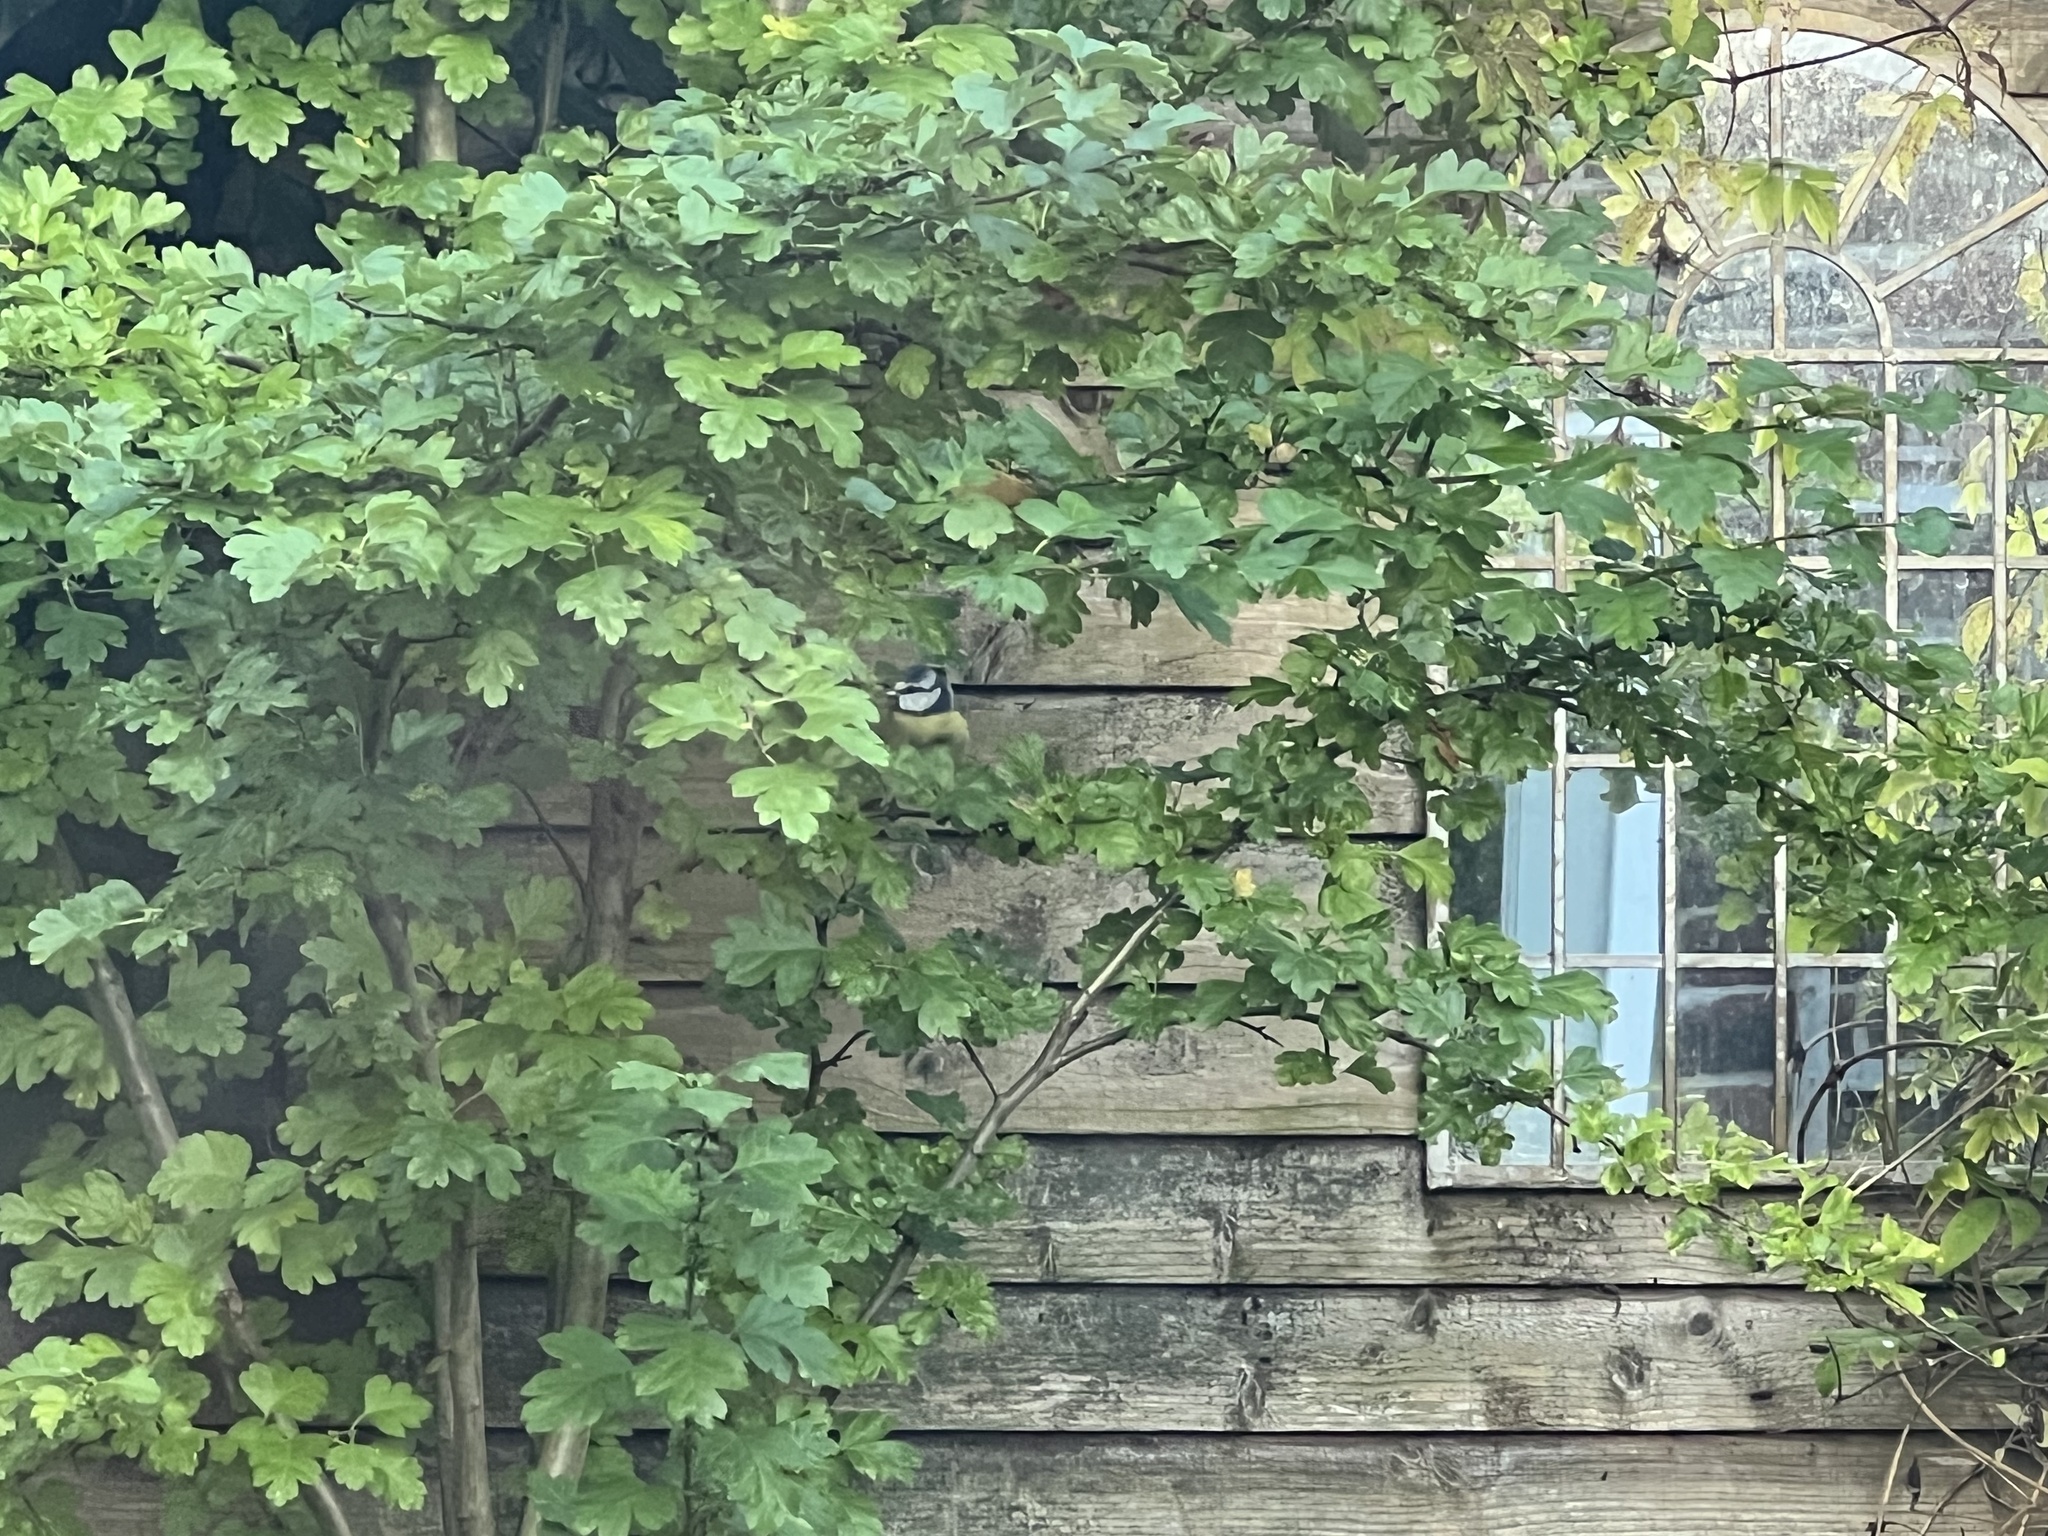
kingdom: Animalia
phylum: Chordata
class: Aves
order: Passeriformes
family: Paridae
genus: Cyanistes
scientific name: Cyanistes caeruleus
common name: Eurasian blue tit
